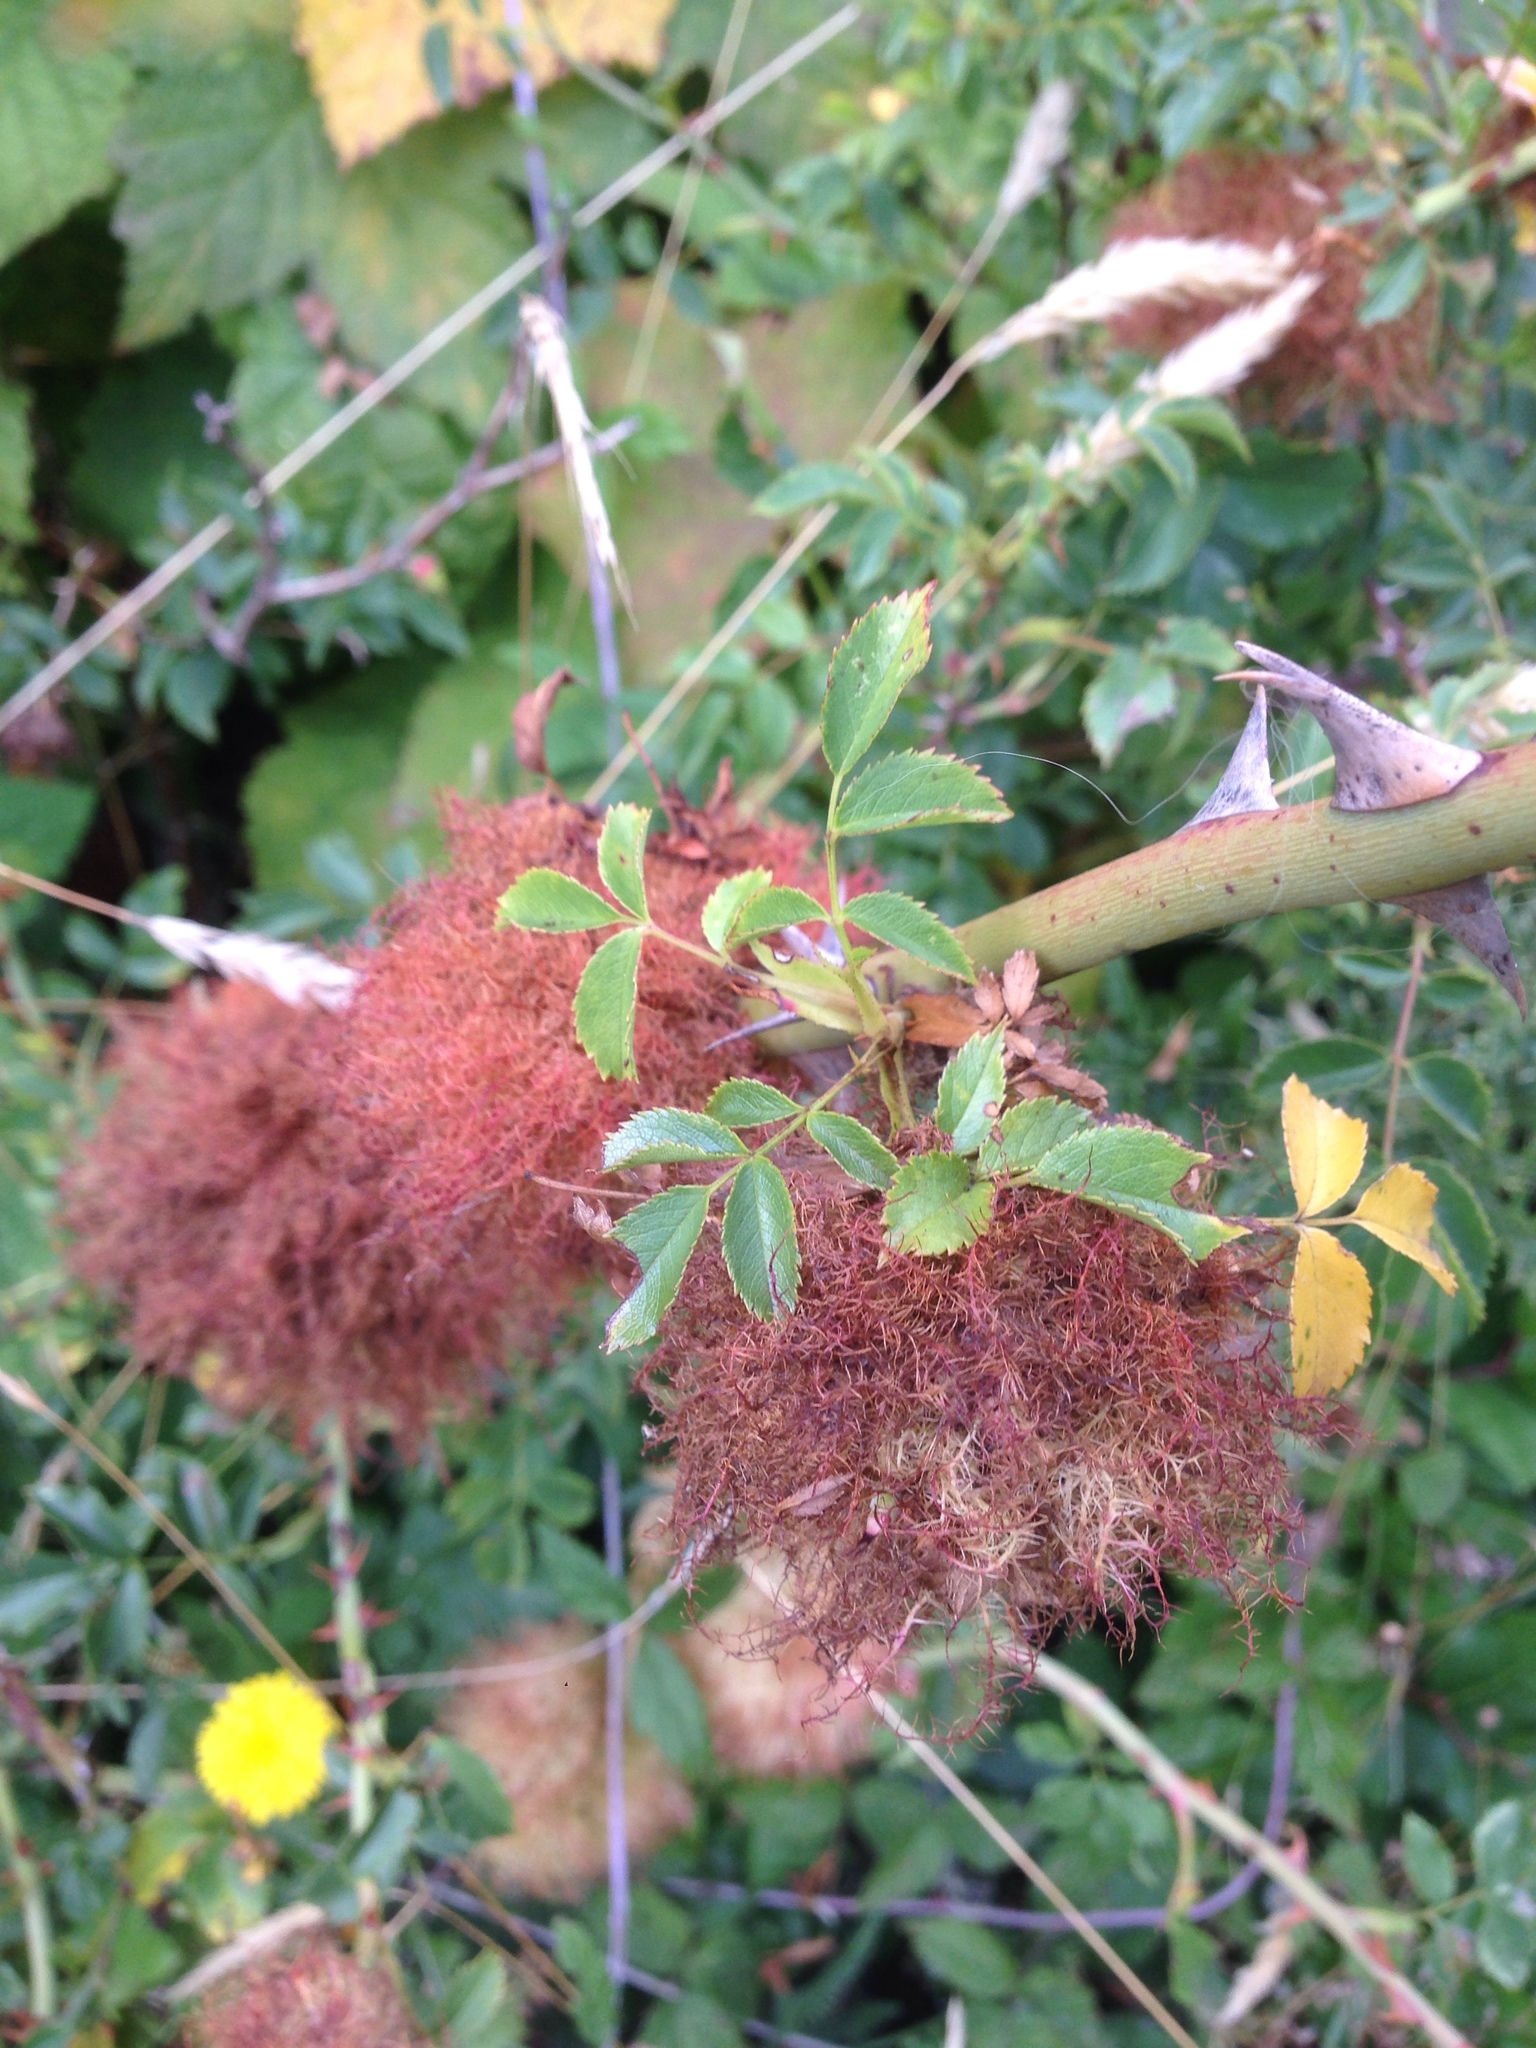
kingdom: Animalia
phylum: Arthropoda
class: Insecta
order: Hymenoptera
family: Cynipidae
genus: Diplolepis
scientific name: Diplolepis rosae
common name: Bedeguar gall
